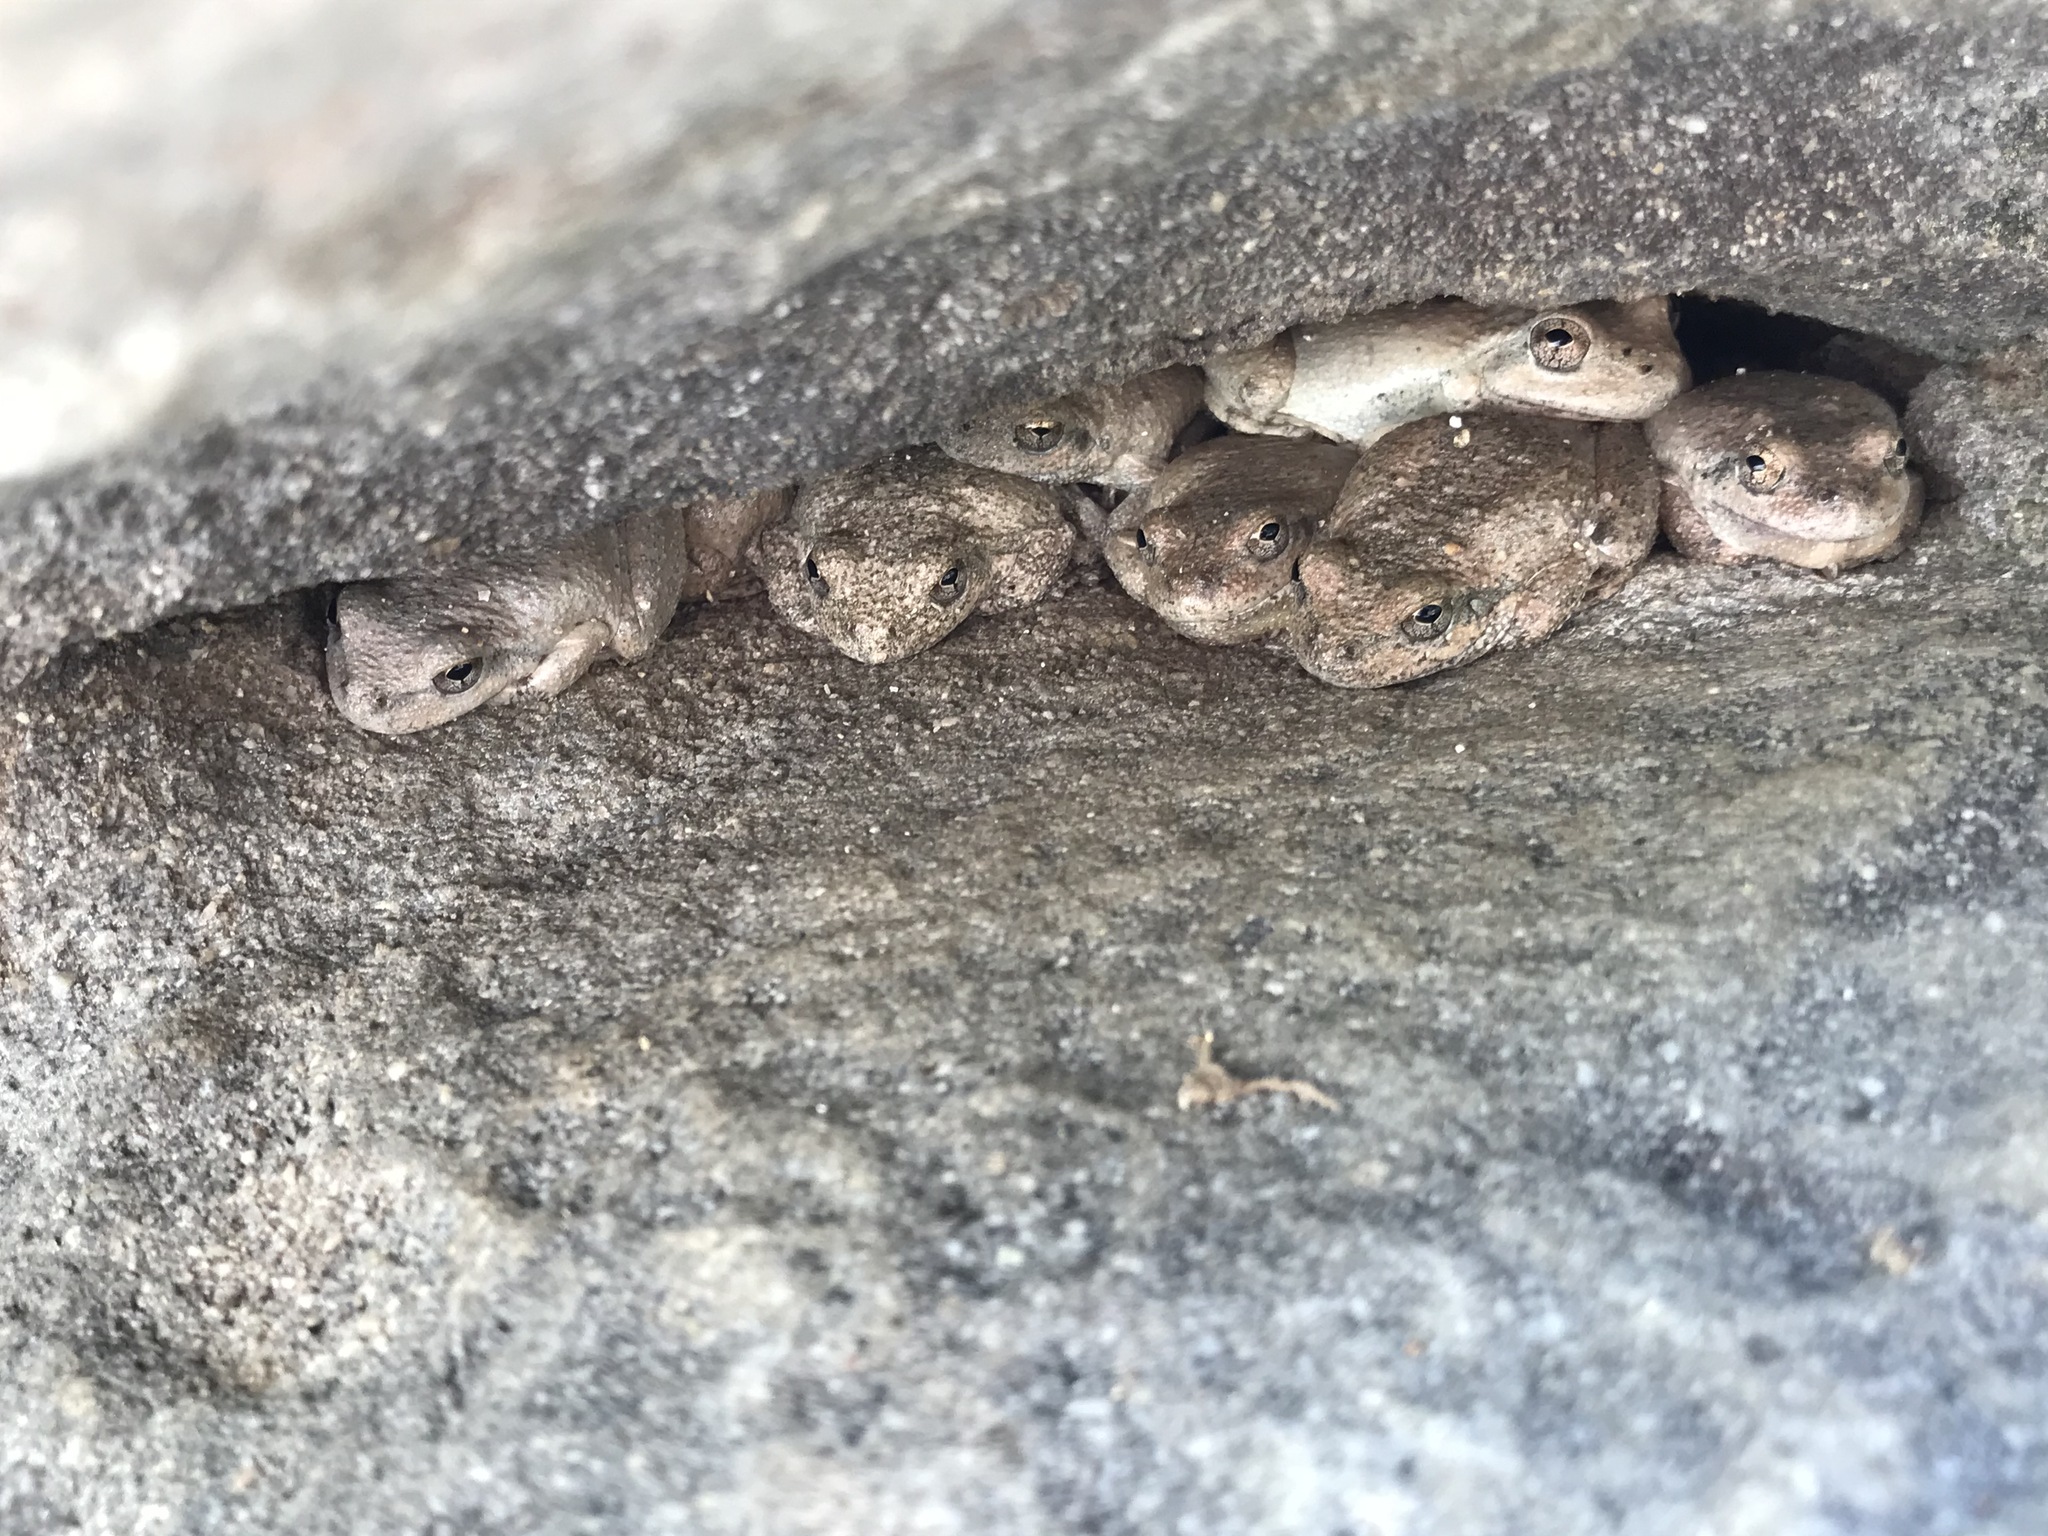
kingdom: Animalia
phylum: Chordata
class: Amphibia
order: Anura
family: Hylidae
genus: Pseudacris
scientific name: Pseudacris cadaverina
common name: California chorus frog
